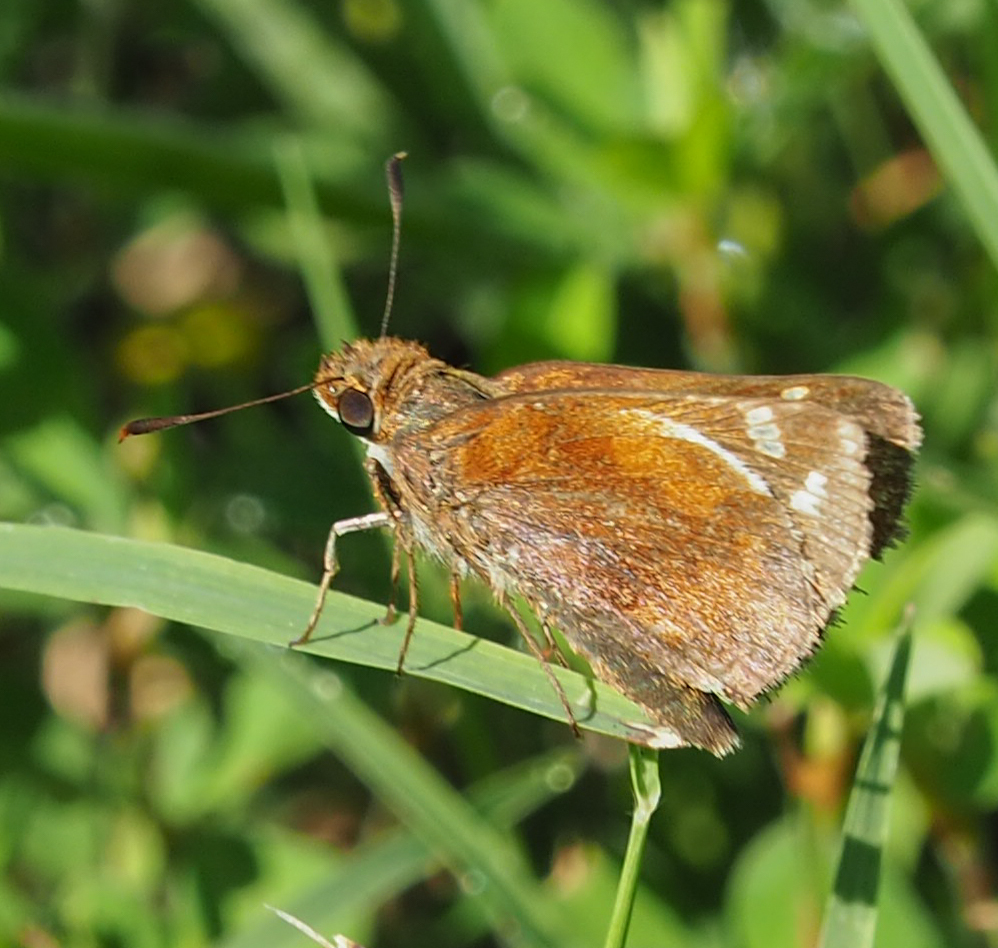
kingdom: Animalia
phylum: Arthropoda
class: Insecta
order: Lepidoptera
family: Hesperiidae
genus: Lon
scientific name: Lon zabulon
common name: Zabulon skipper
